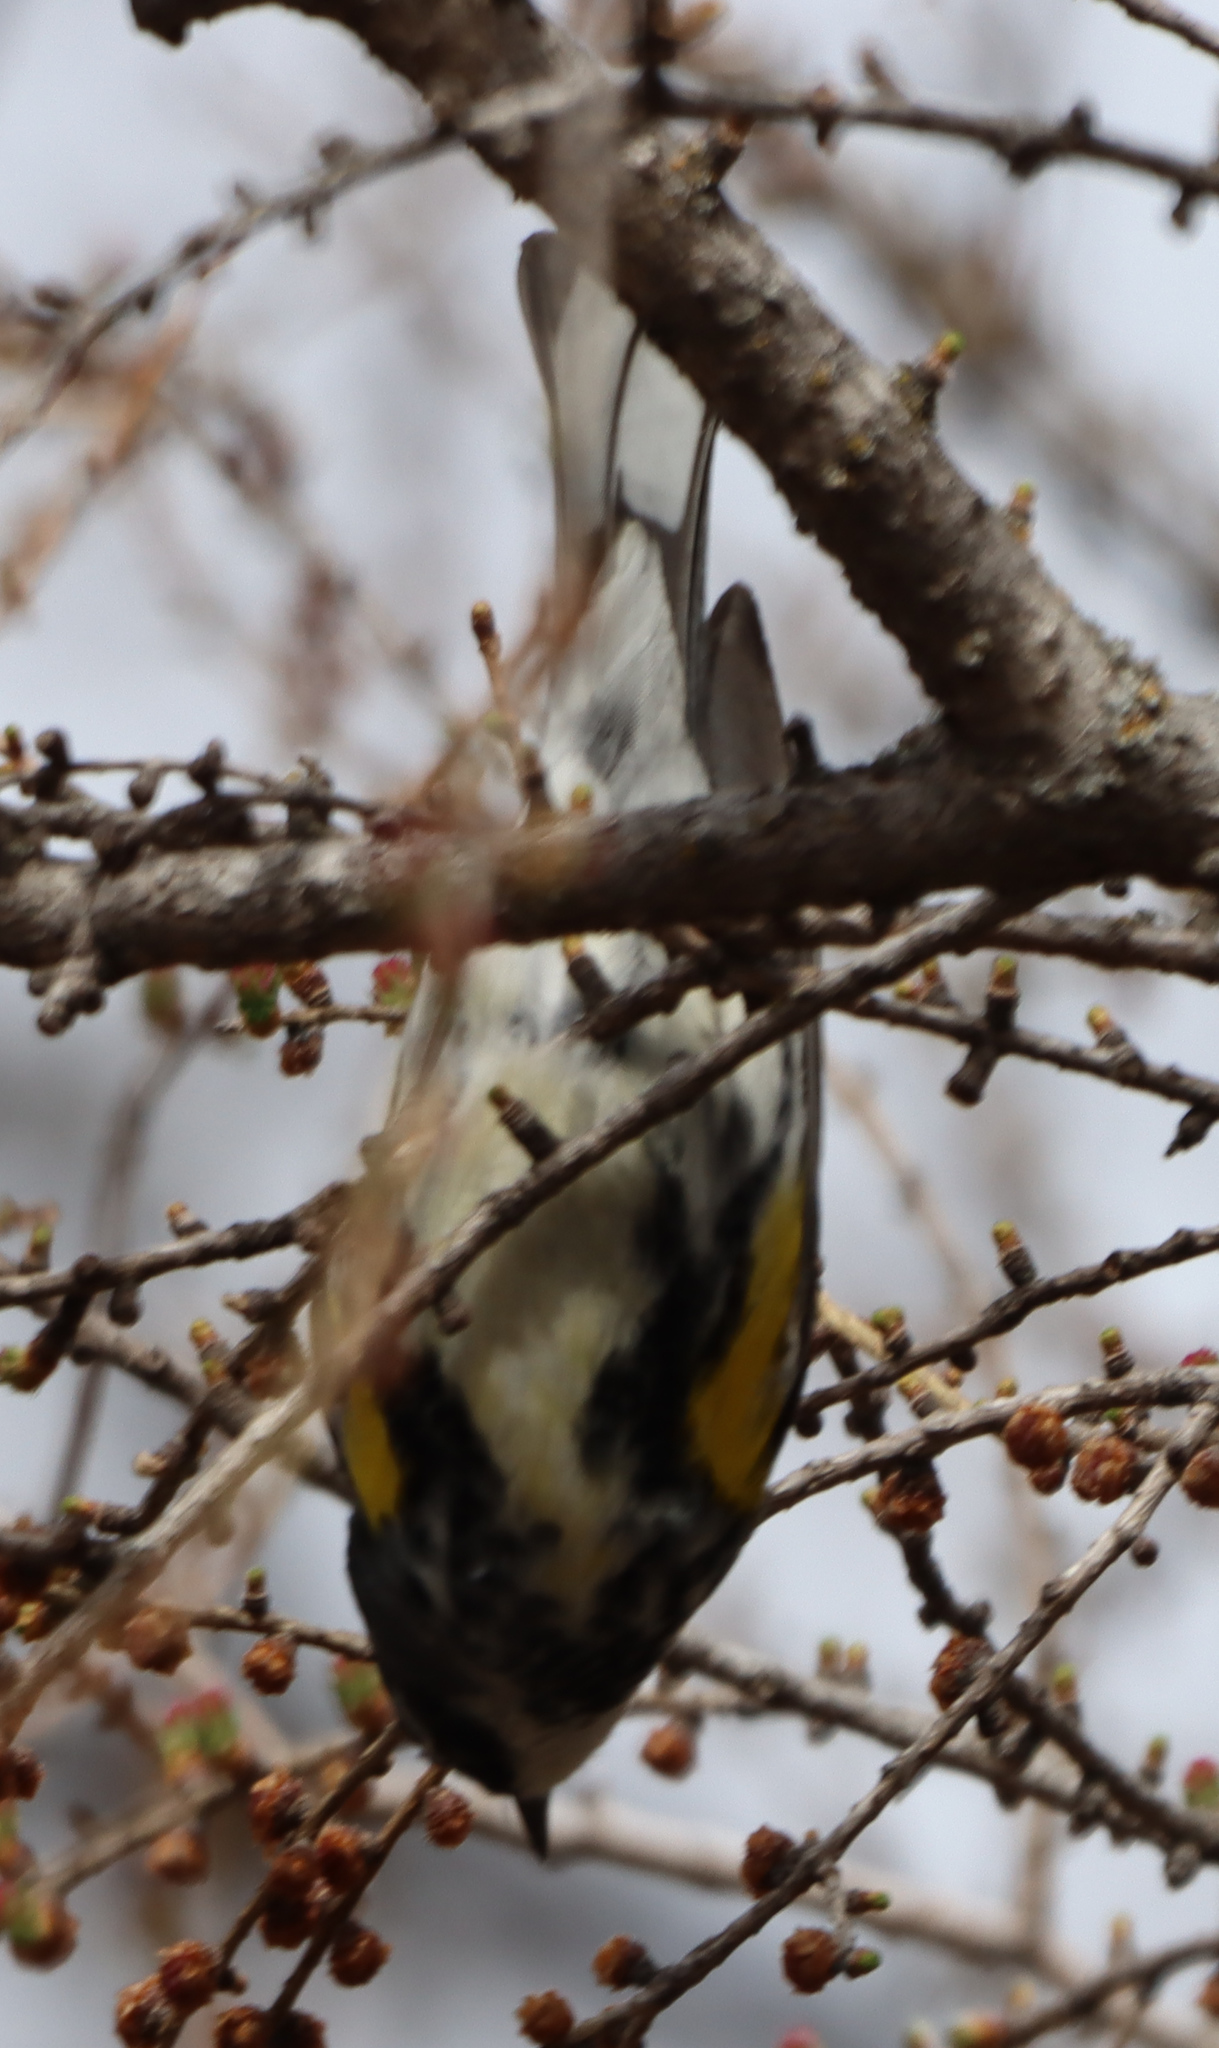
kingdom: Animalia
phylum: Chordata
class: Aves
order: Passeriformes
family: Parulidae
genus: Setophaga
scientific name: Setophaga coronata
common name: Myrtle warbler
